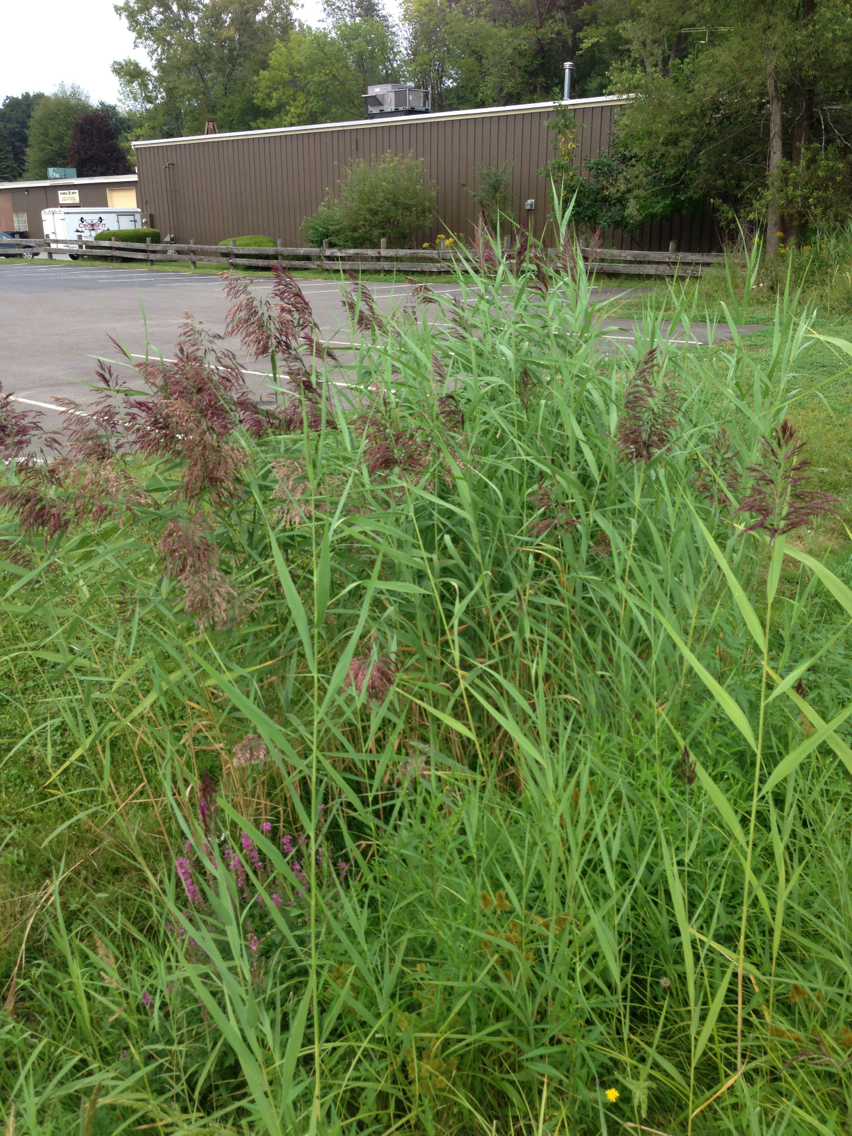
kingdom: Plantae
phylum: Tracheophyta
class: Liliopsida
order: Poales
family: Poaceae
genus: Phragmites
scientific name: Phragmites australis
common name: Common reed
